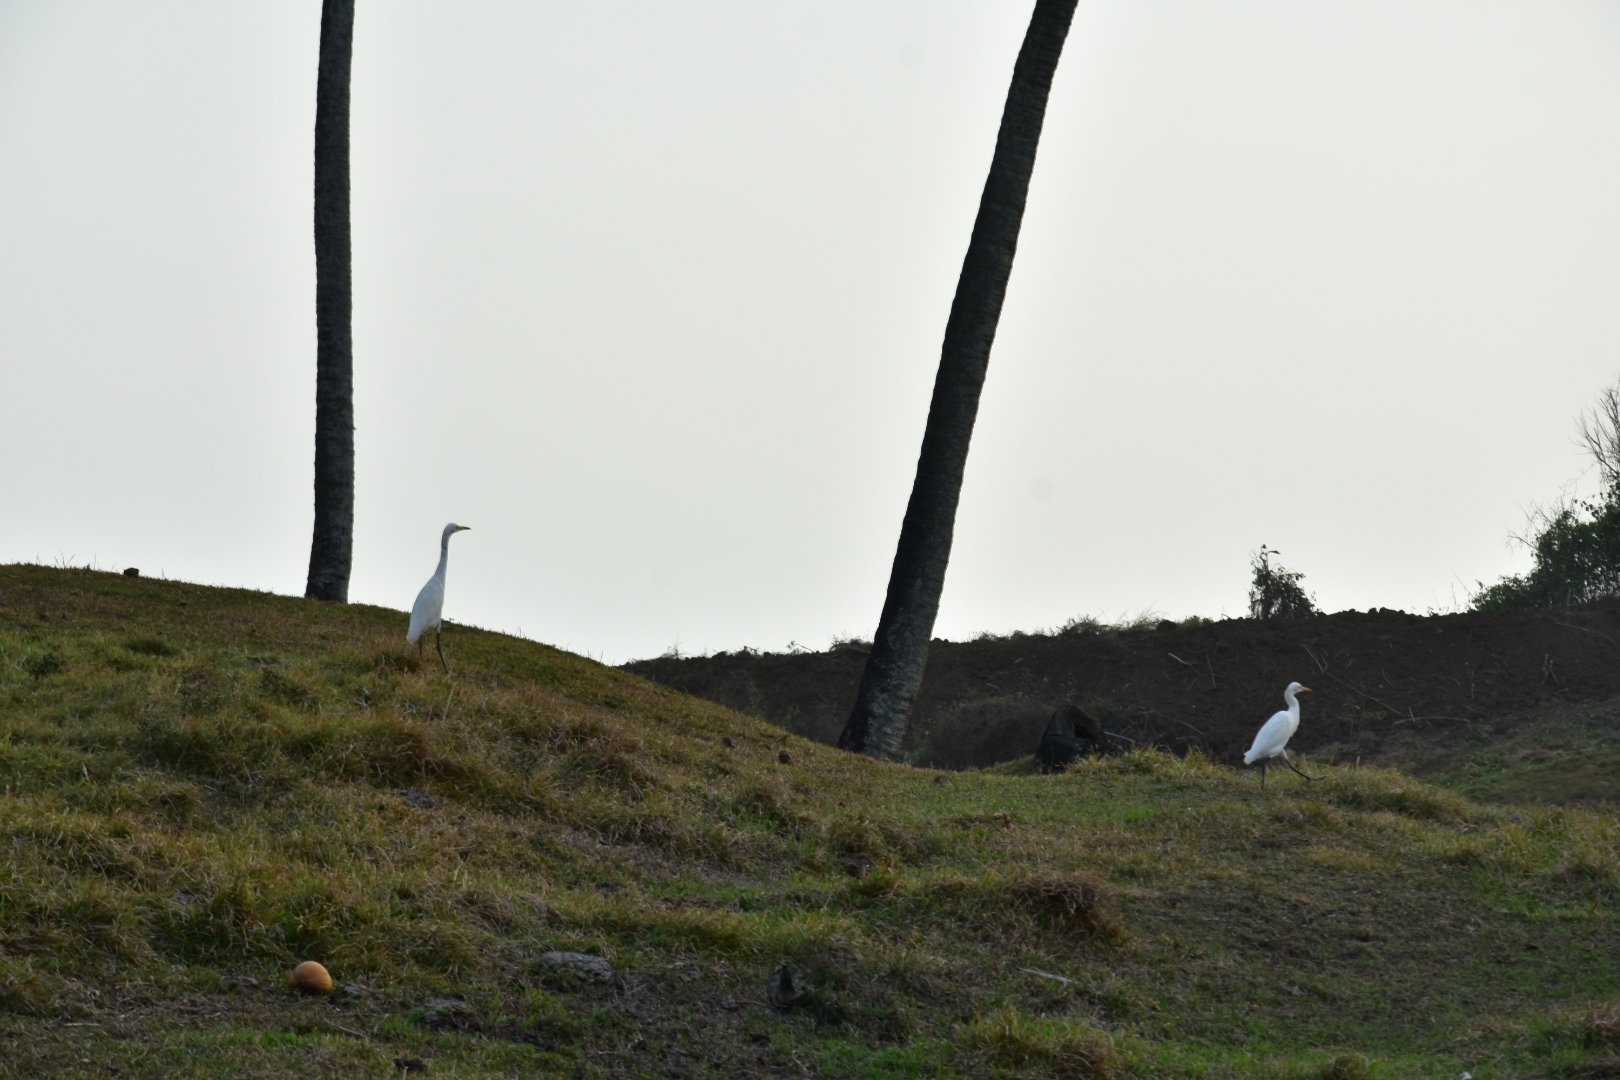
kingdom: Animalia
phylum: Chordata
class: Aves
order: Pelecaniformes
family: Ardeidae
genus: Bubulcus
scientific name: Bubulcus coromandus
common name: Eastern cattle egret
